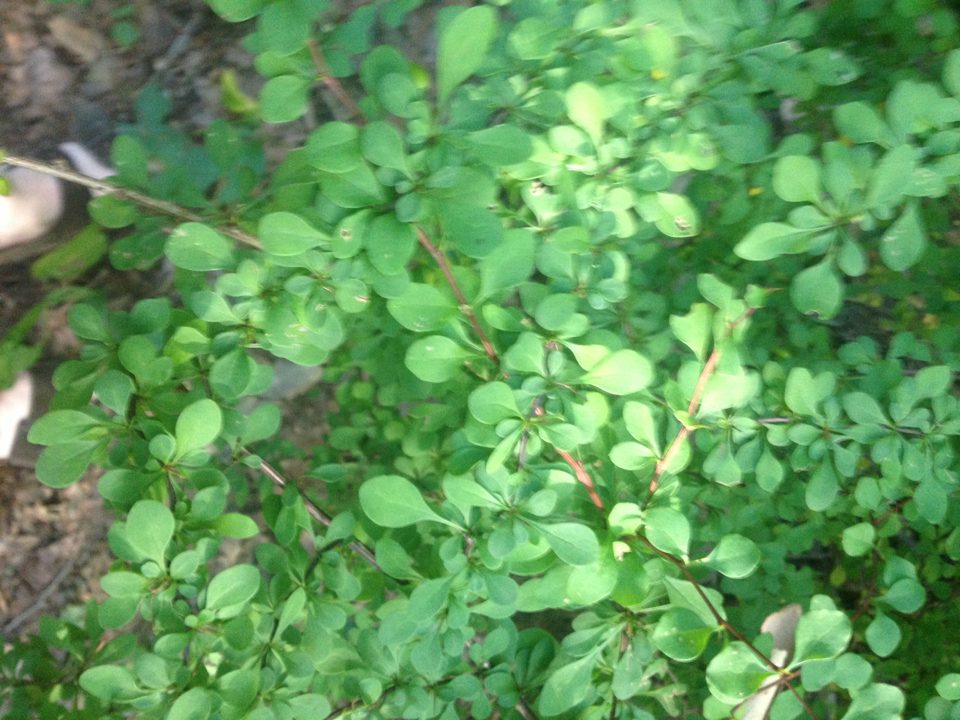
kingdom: Plantae
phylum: Tracheophyta
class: Magnoliopsida
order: Ranunculales
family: Berberidaceae
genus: Berberis
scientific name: Berberis thunbergii
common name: Japanese barberry
